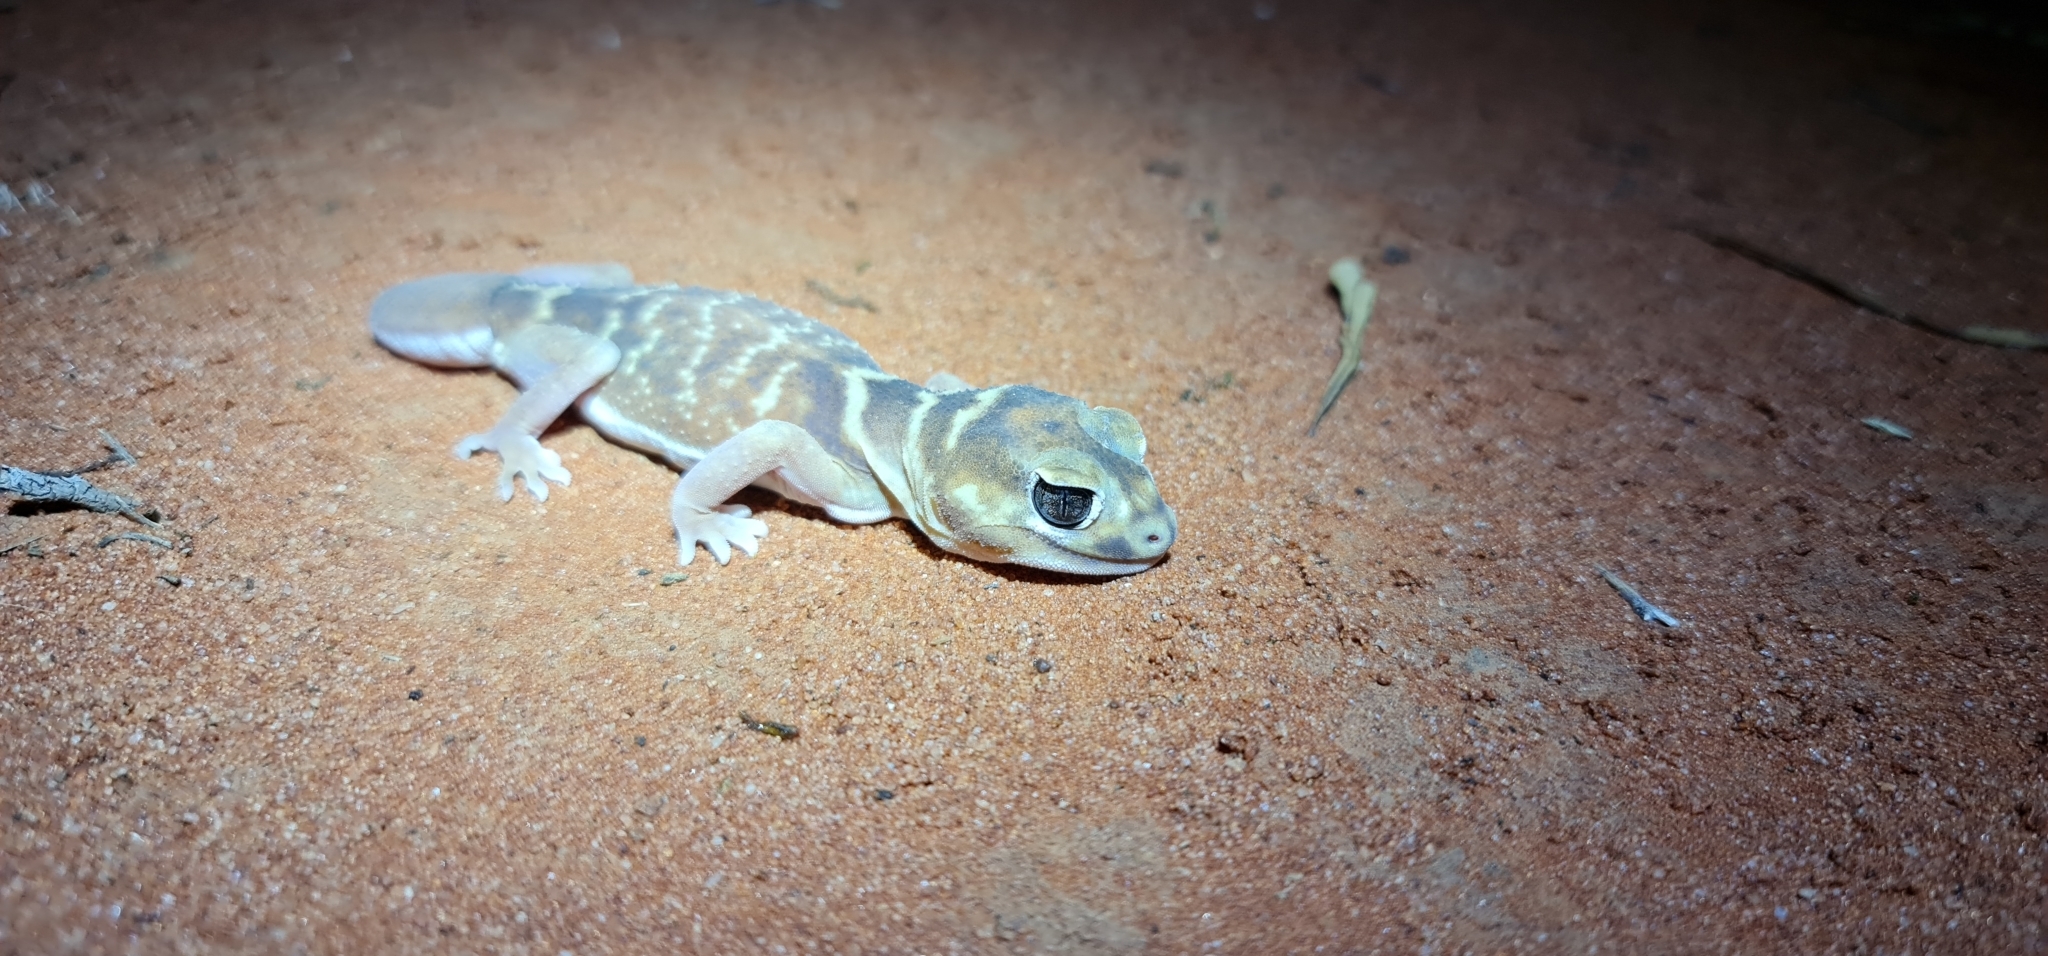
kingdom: Animalia
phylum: Chordata
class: Squamata
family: Carphodactylidae
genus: Nephrurus
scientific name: Nephrurus levis
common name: Smooth knob-tailed gecko
